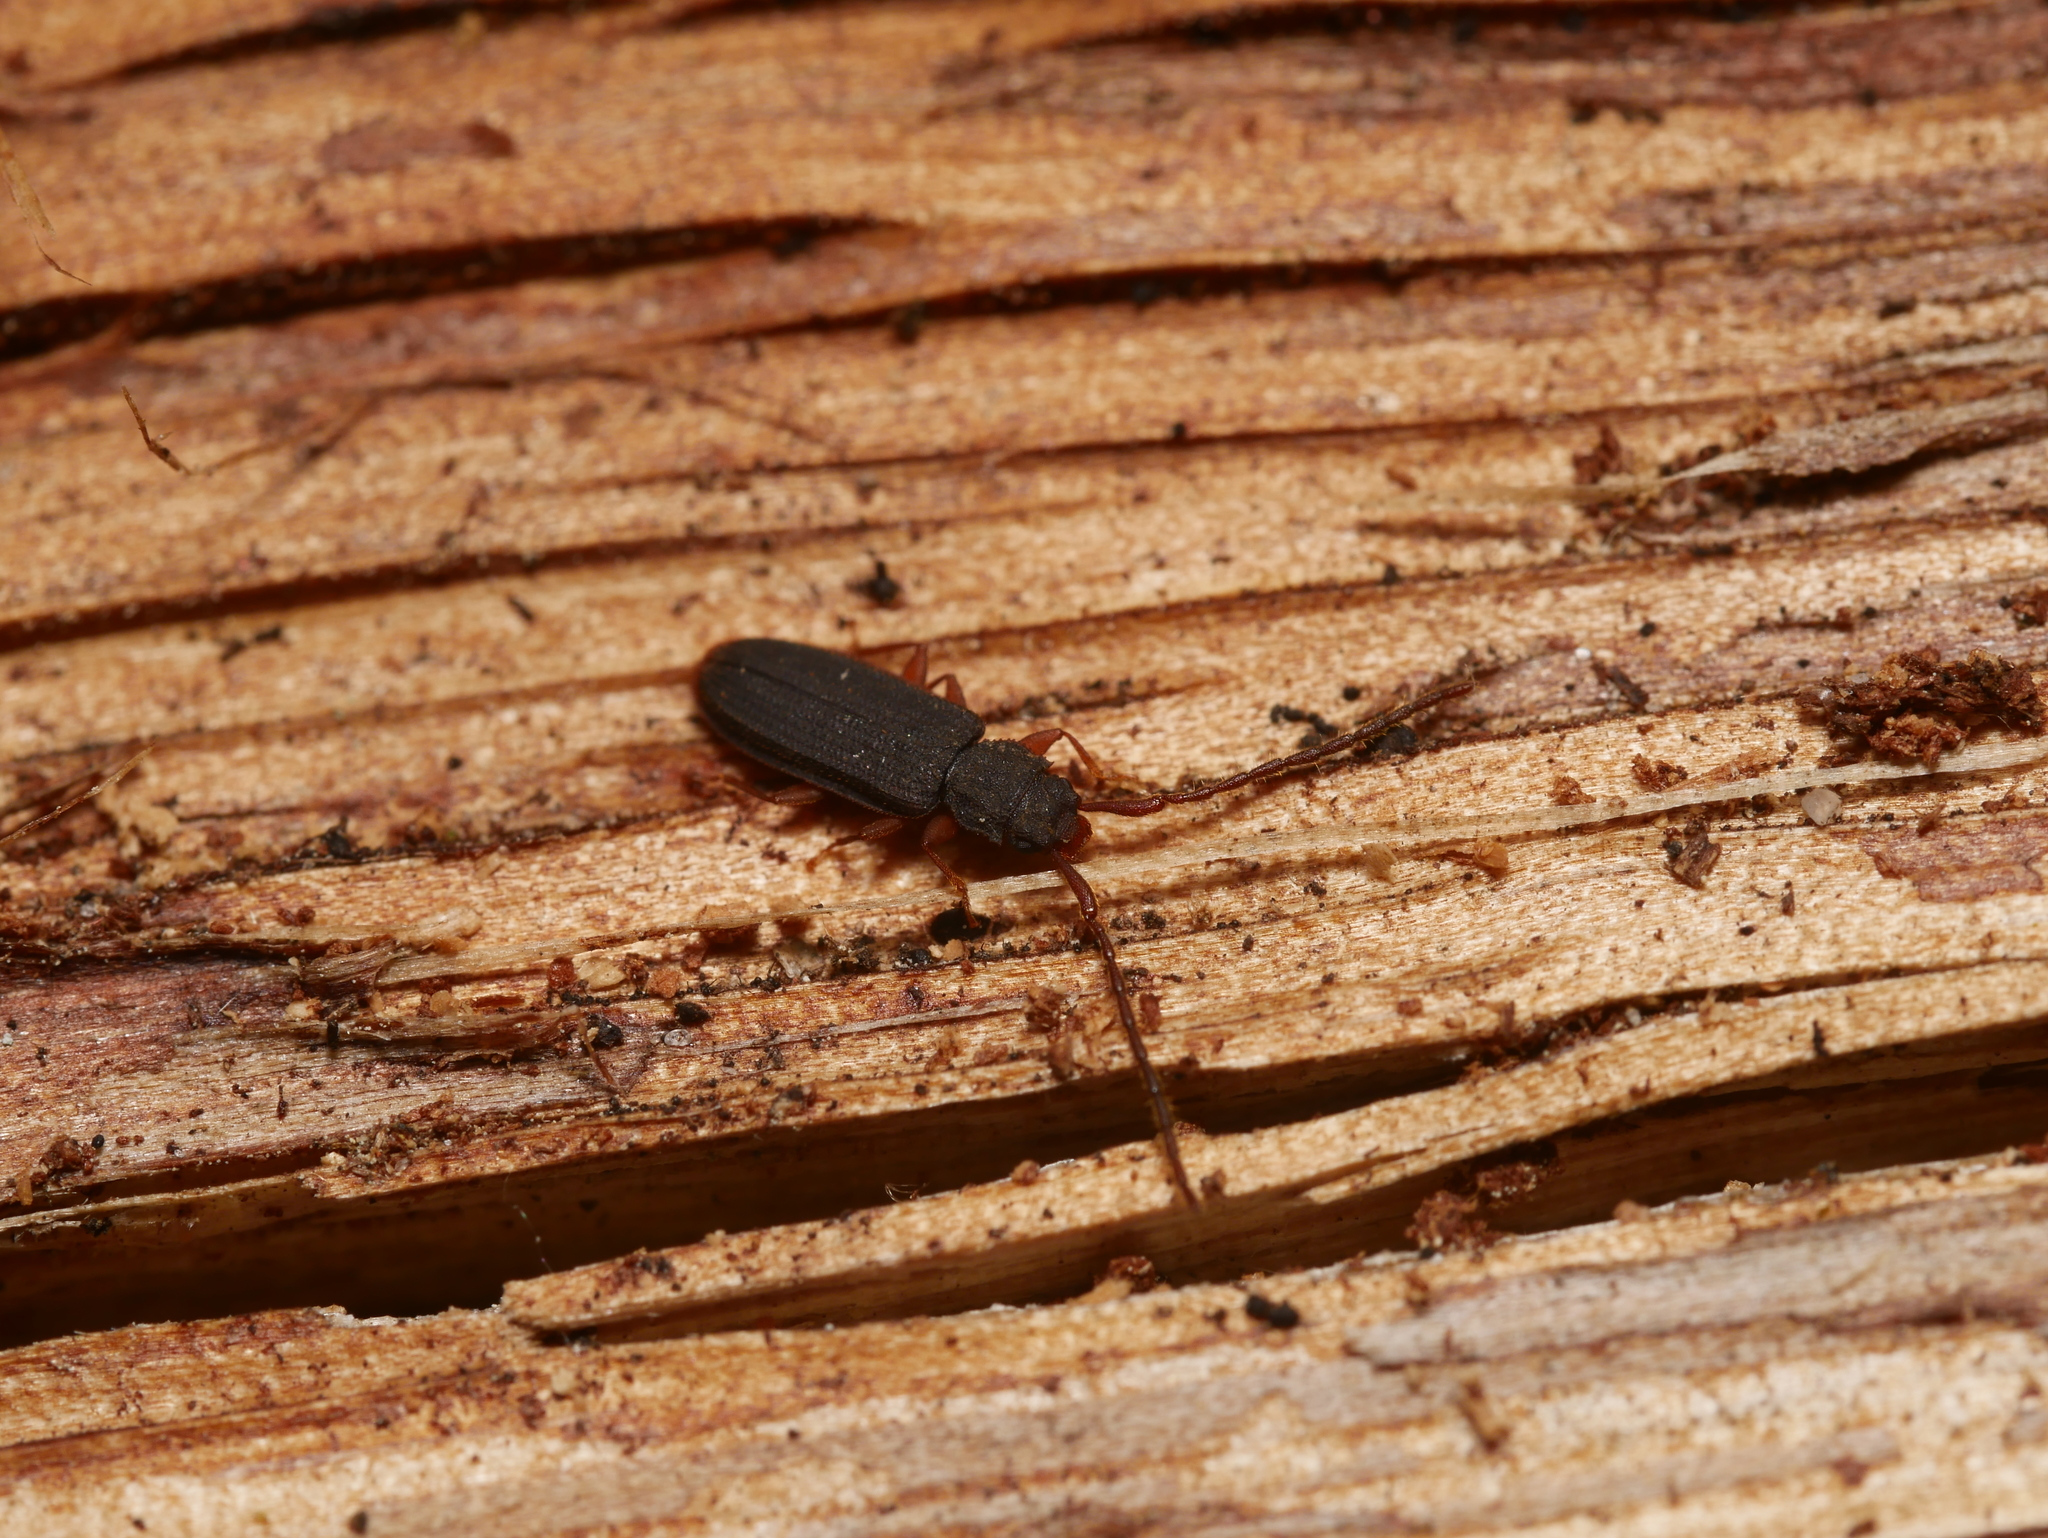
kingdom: Animalia
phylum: Arthropoda
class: Insecta
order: Coleoptera
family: Silvanidae
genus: Uleiota
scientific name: Uleiota planatus
